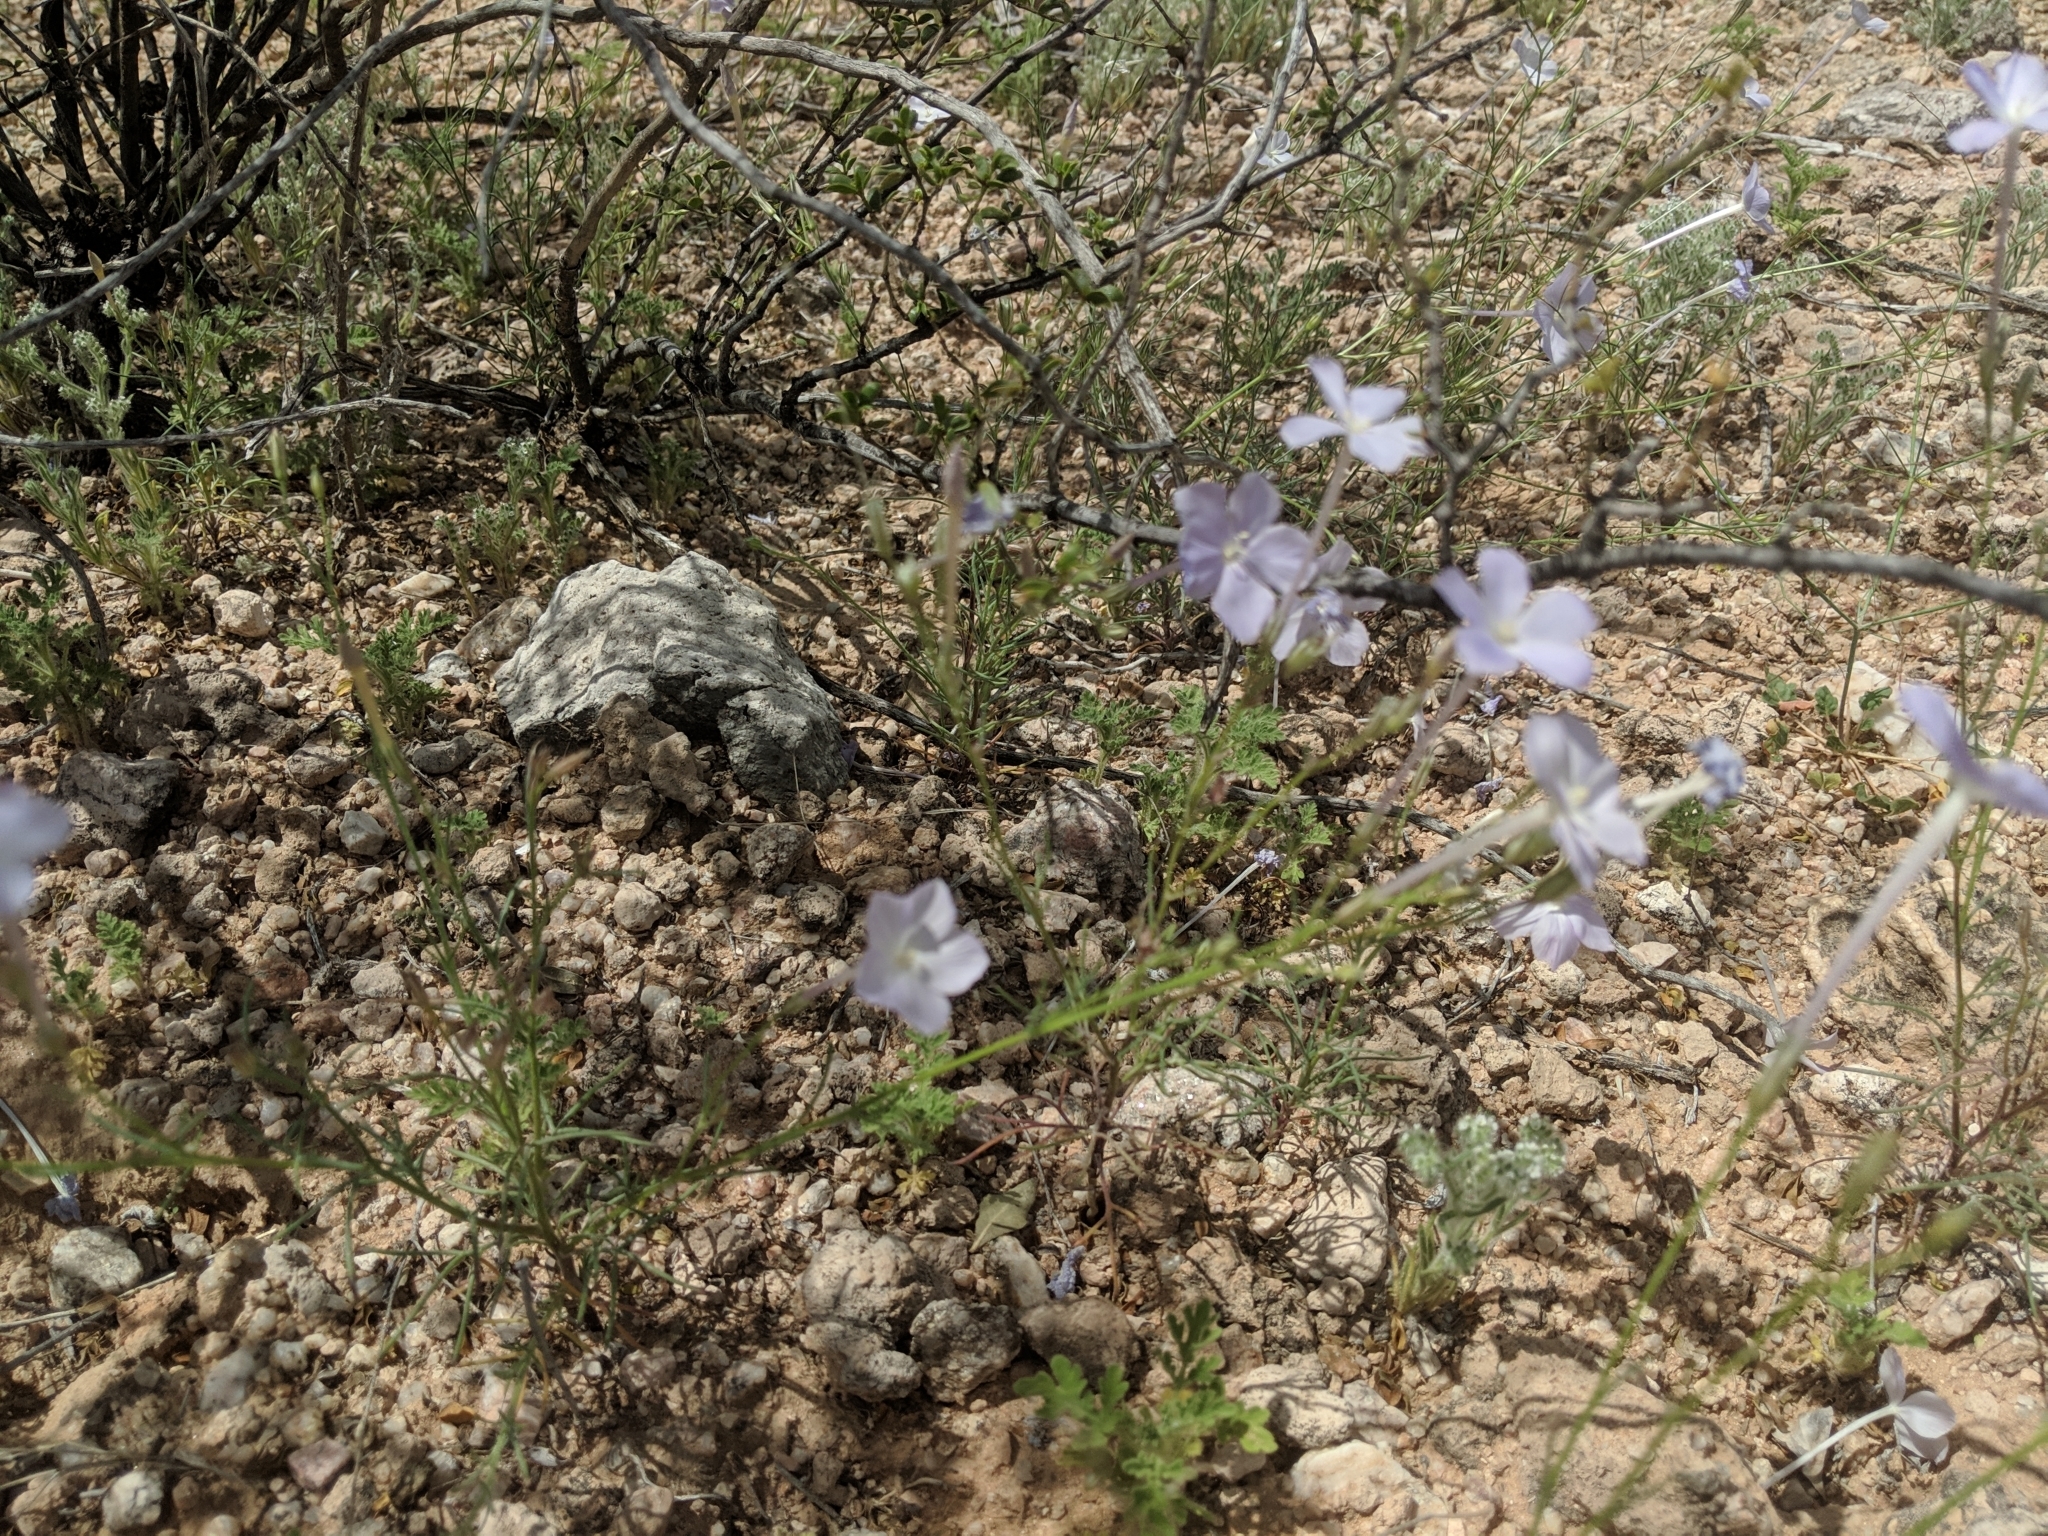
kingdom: Plantae
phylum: Tracheophyta
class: Magnoliopsida
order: Ericales
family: Polemoniaceae
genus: Ipomopsis
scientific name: Ipomopsis longiflora
